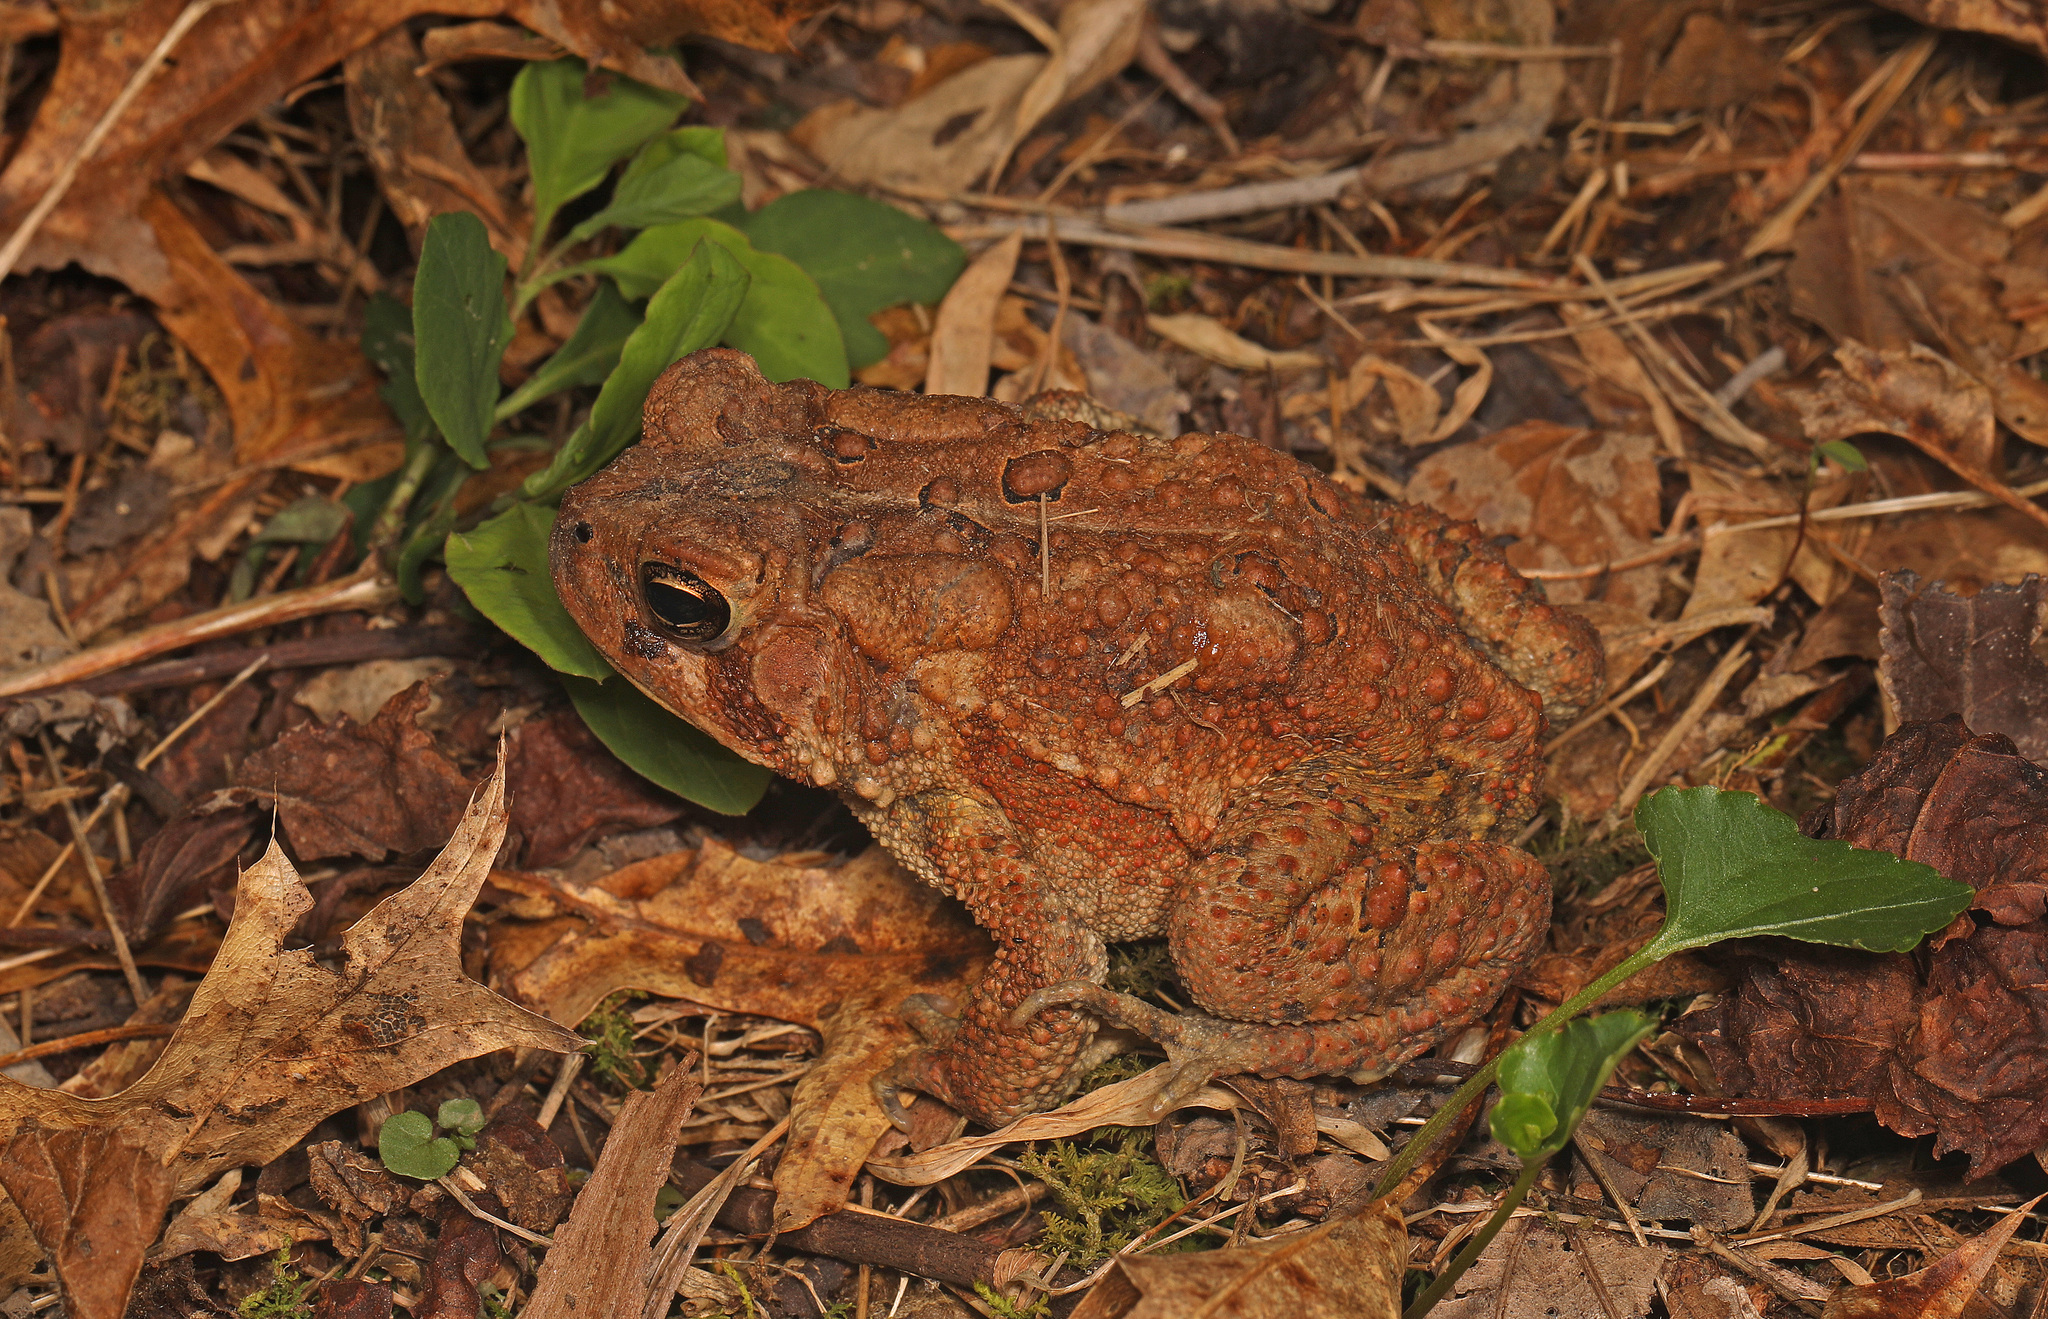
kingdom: Animalia
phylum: Chordata
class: Amphibia
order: Anura
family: Bufonidae
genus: Anaxyrus
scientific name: Anaxyrus americanus
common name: American toad
